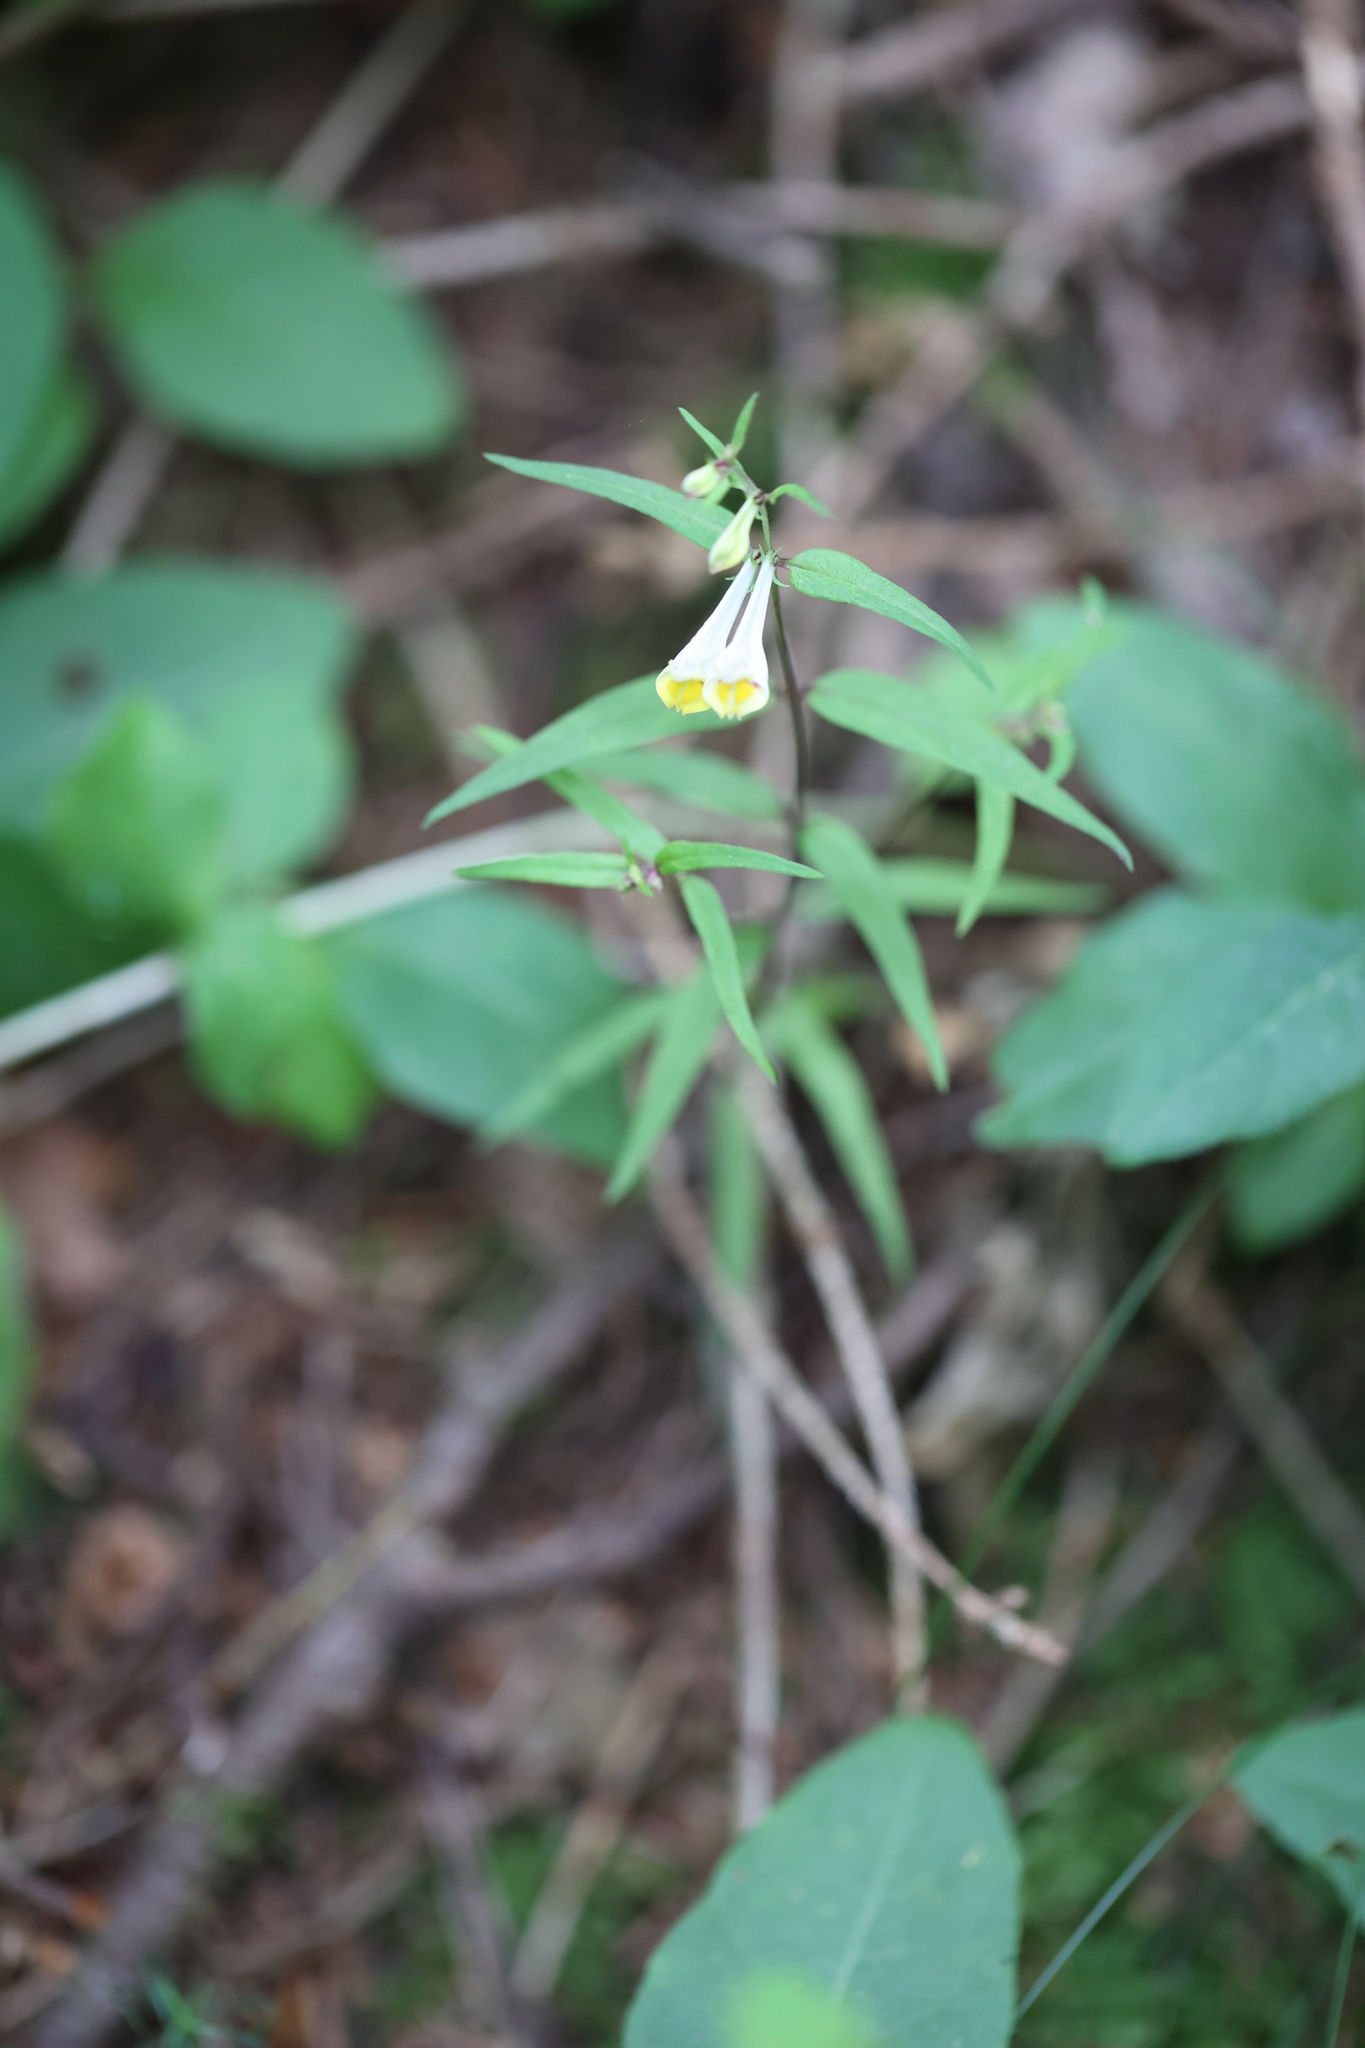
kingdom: Plantae
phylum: Tracheophyta
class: Magnoliopsida
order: Lamiales
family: Orobanchaceae
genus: Melampyrum
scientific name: Melampyrum pratense
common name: Common cow-wheat
